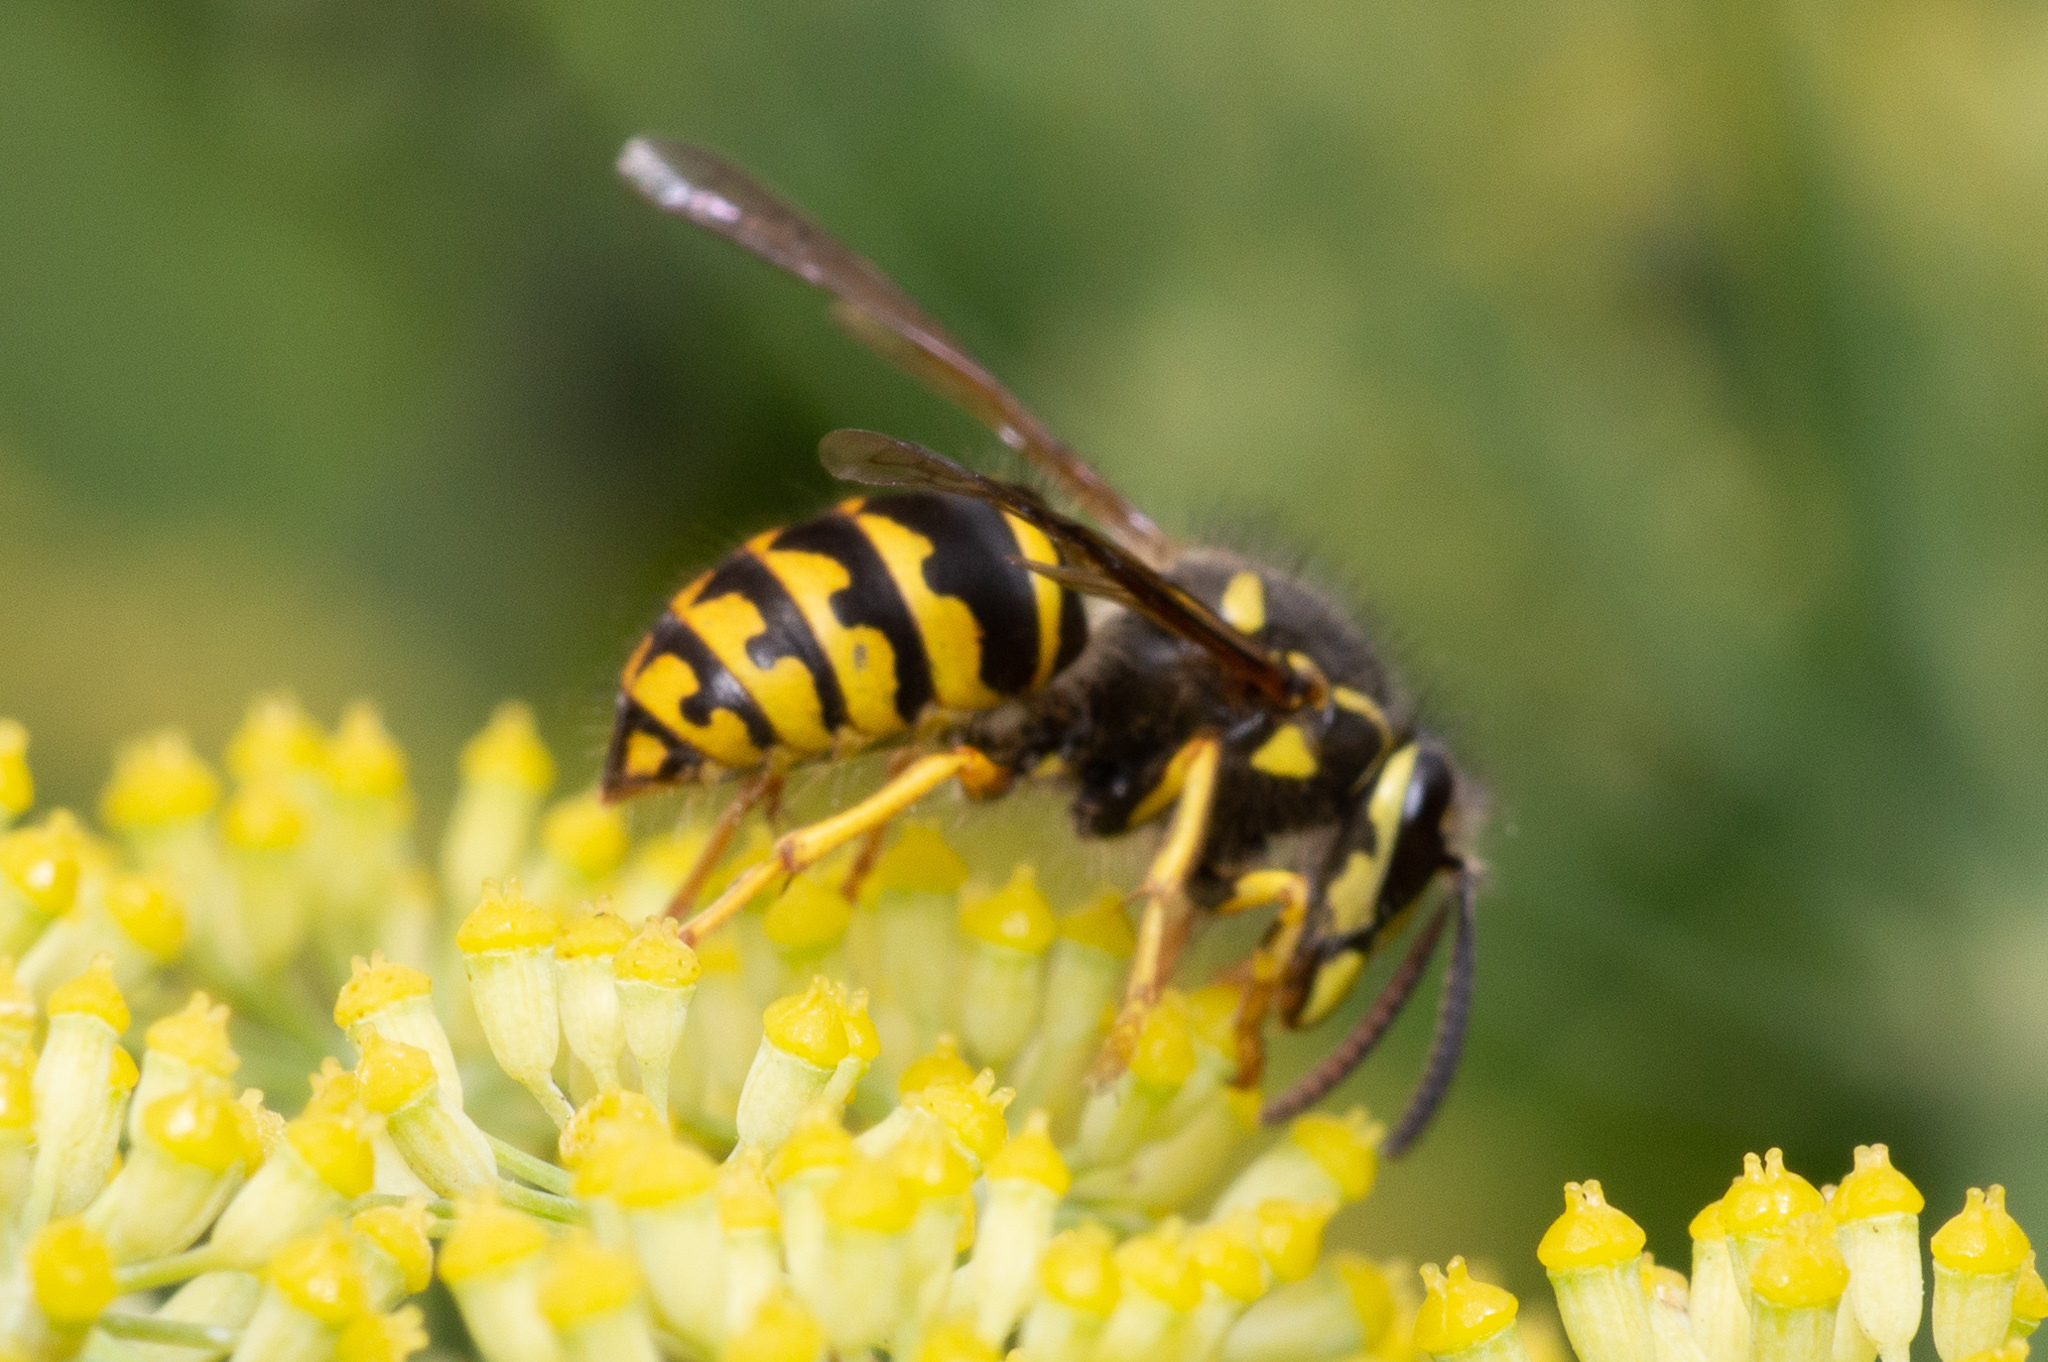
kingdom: Animalia
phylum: Arthropoda
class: Insecta
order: Hymenoptera
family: Vespidae
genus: Dolichovespula
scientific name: Dolichovespula arenaria
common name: Aerial yellowjacket
